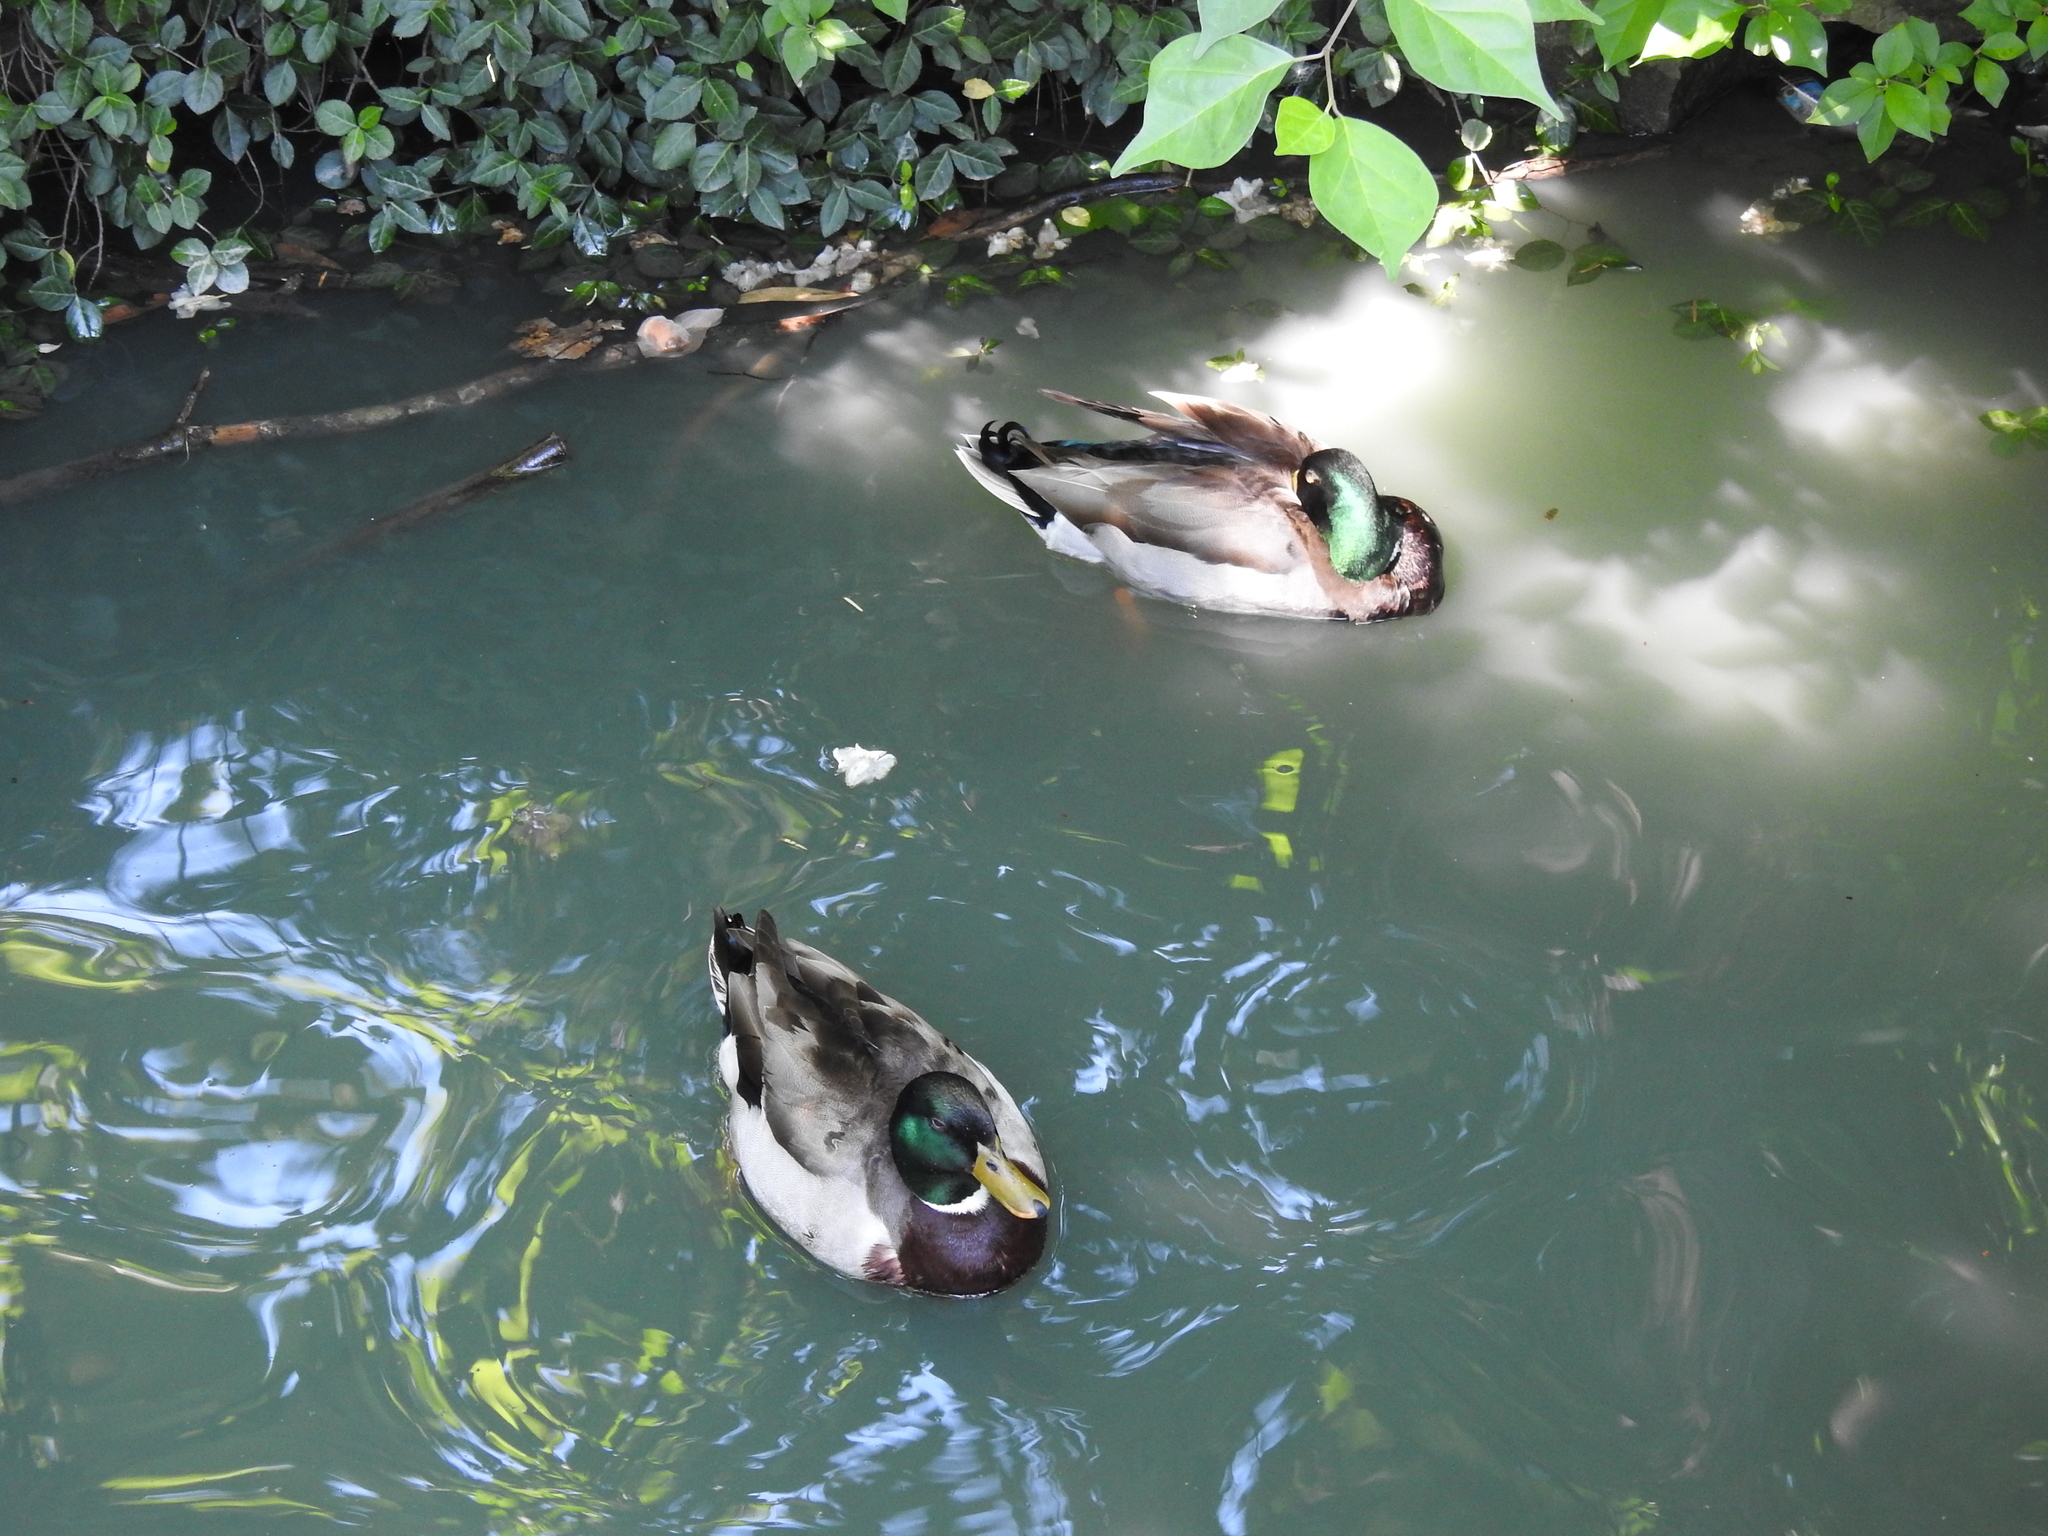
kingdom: Animalia
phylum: Chordata
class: Aves
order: Anseriformes
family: Anatidae
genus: Anas
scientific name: Anas platyrhynchos
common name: Mallard
